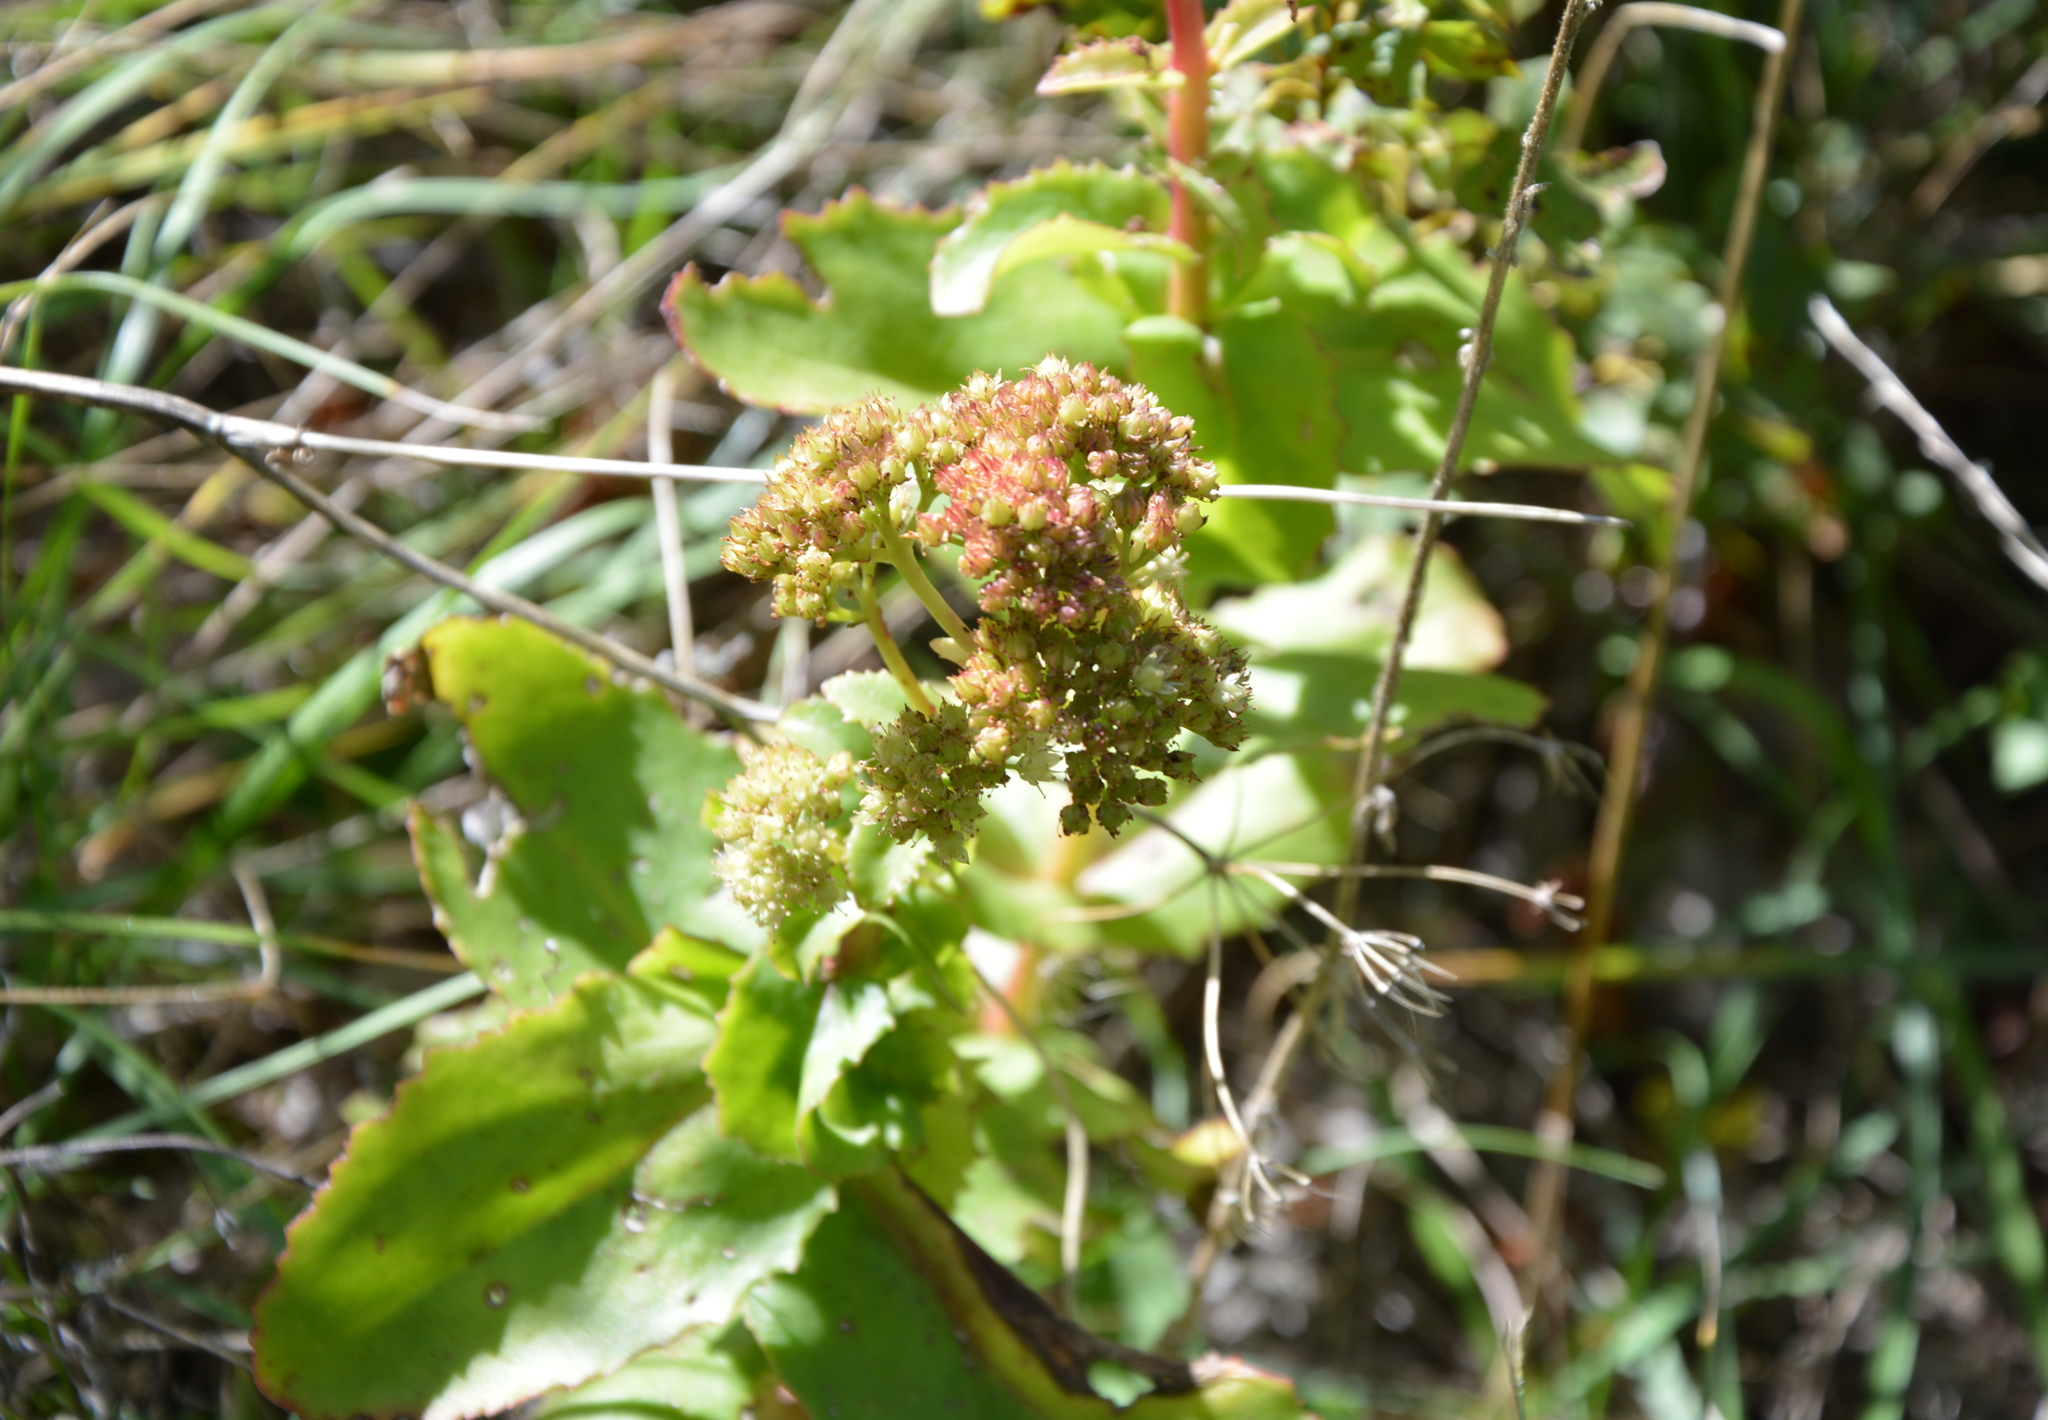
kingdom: Plantae
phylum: Tracheophyta
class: Magnoliopsida
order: Saxifragales
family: Crassulaceae
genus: Hylotelephium
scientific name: Hylotelephium maximum
